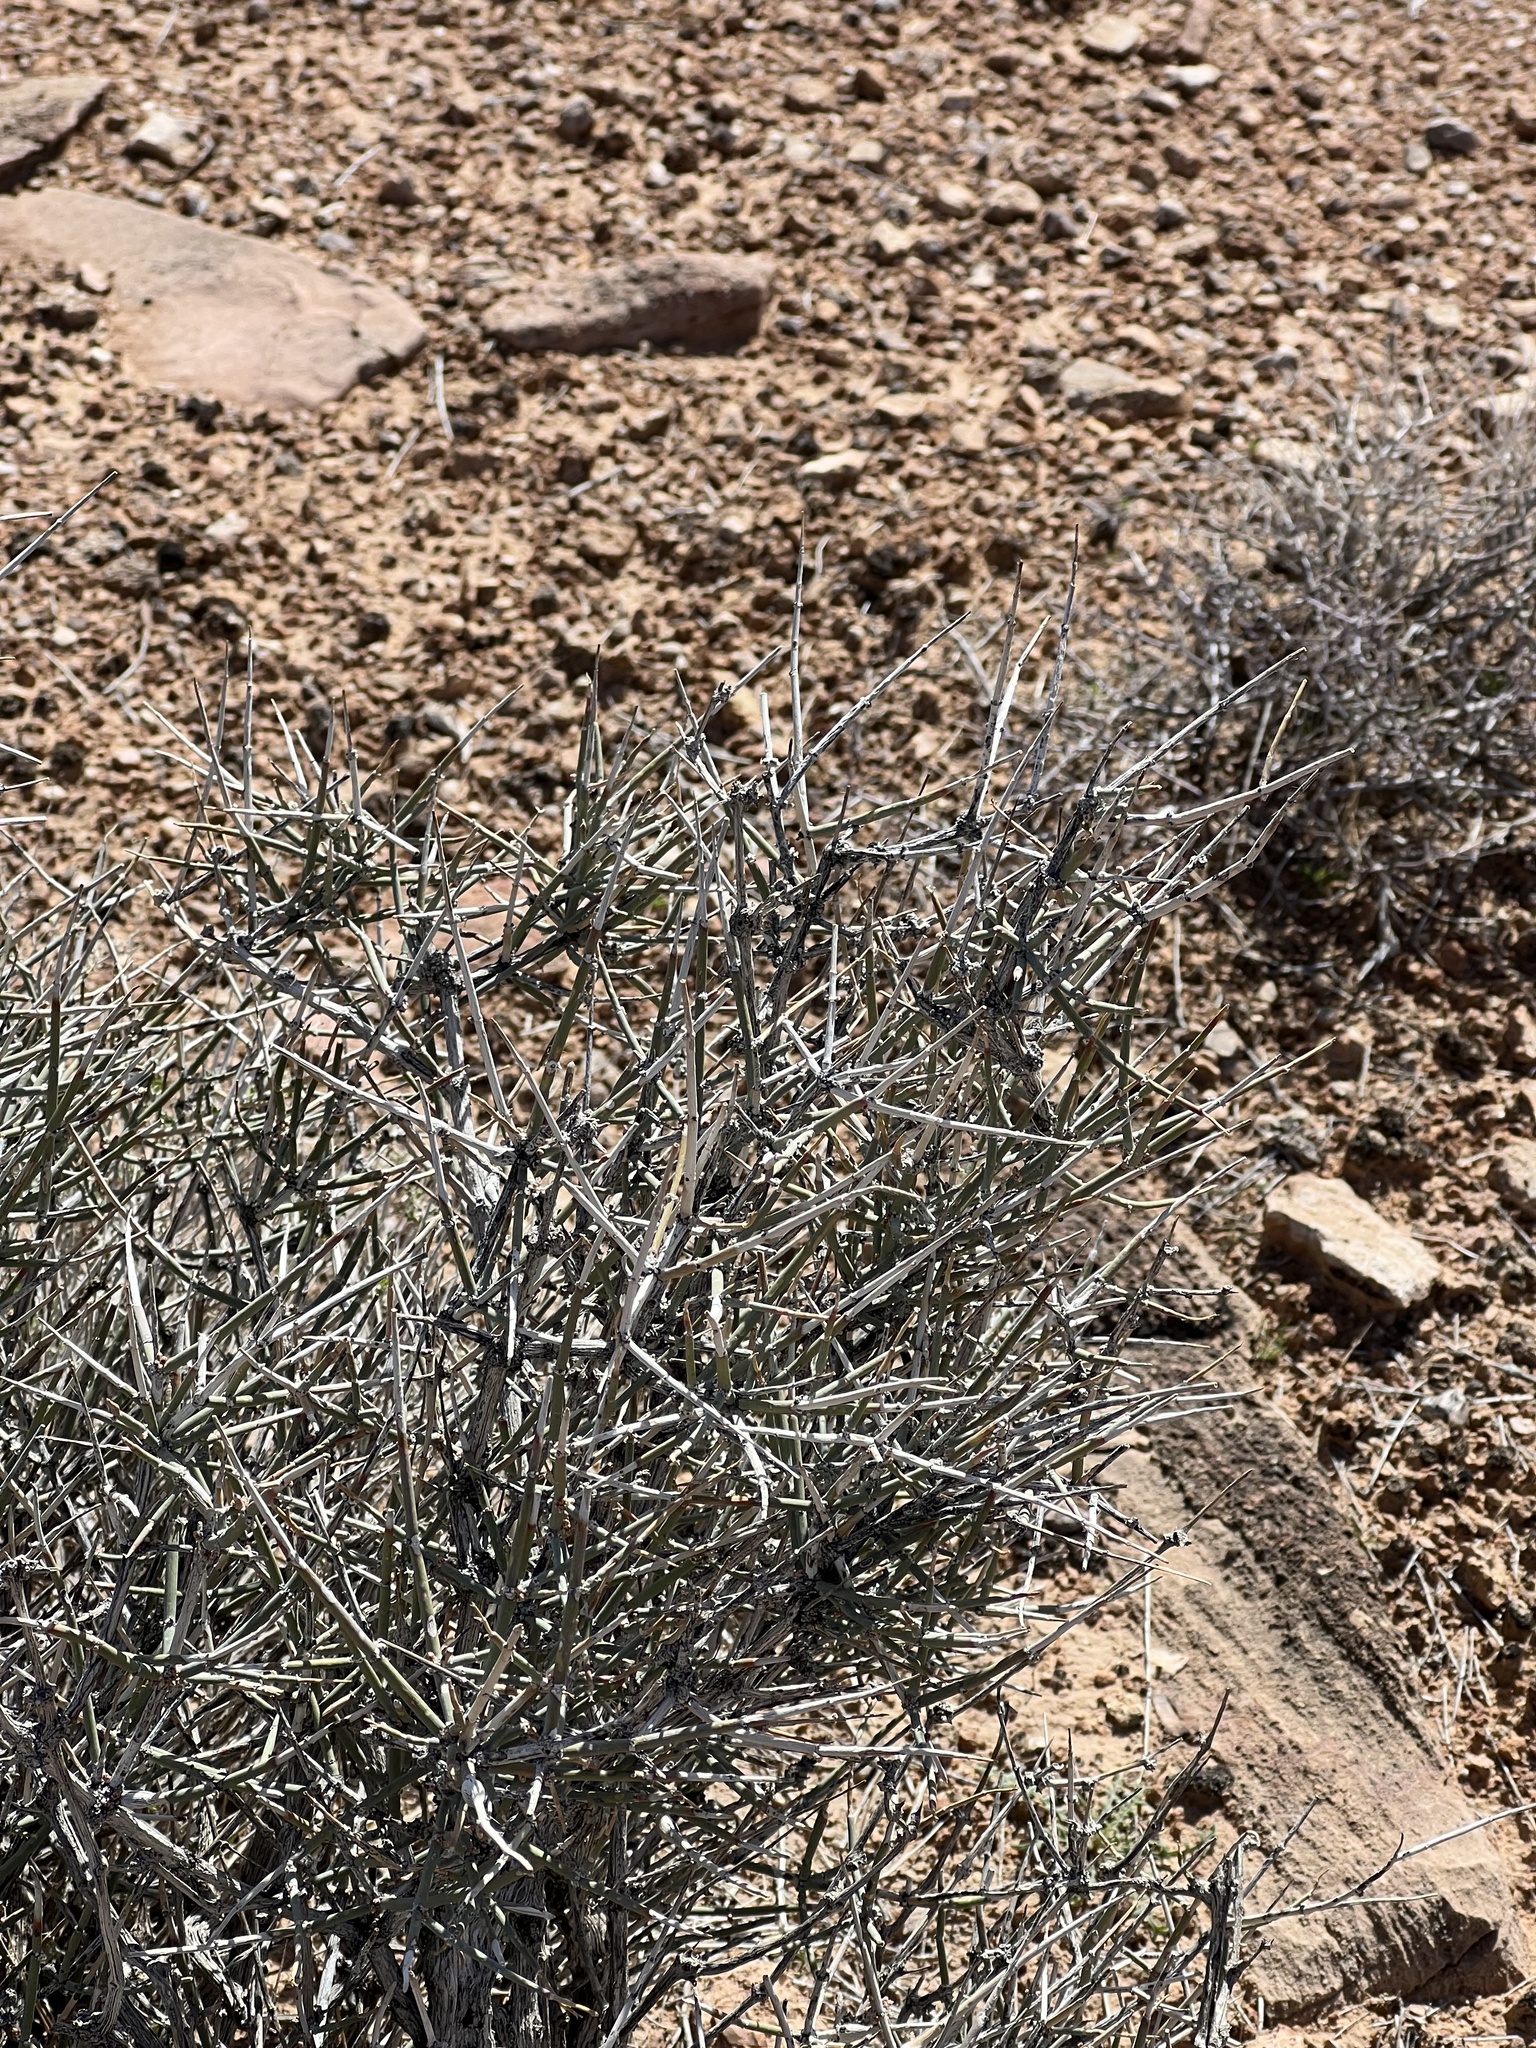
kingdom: Plantae
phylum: Tracheophyta
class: Gnetopsida
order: Ephedrales
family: Ephedraceae
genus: Ephedra
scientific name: Ephedra nevadensis
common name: Gray ephedra
